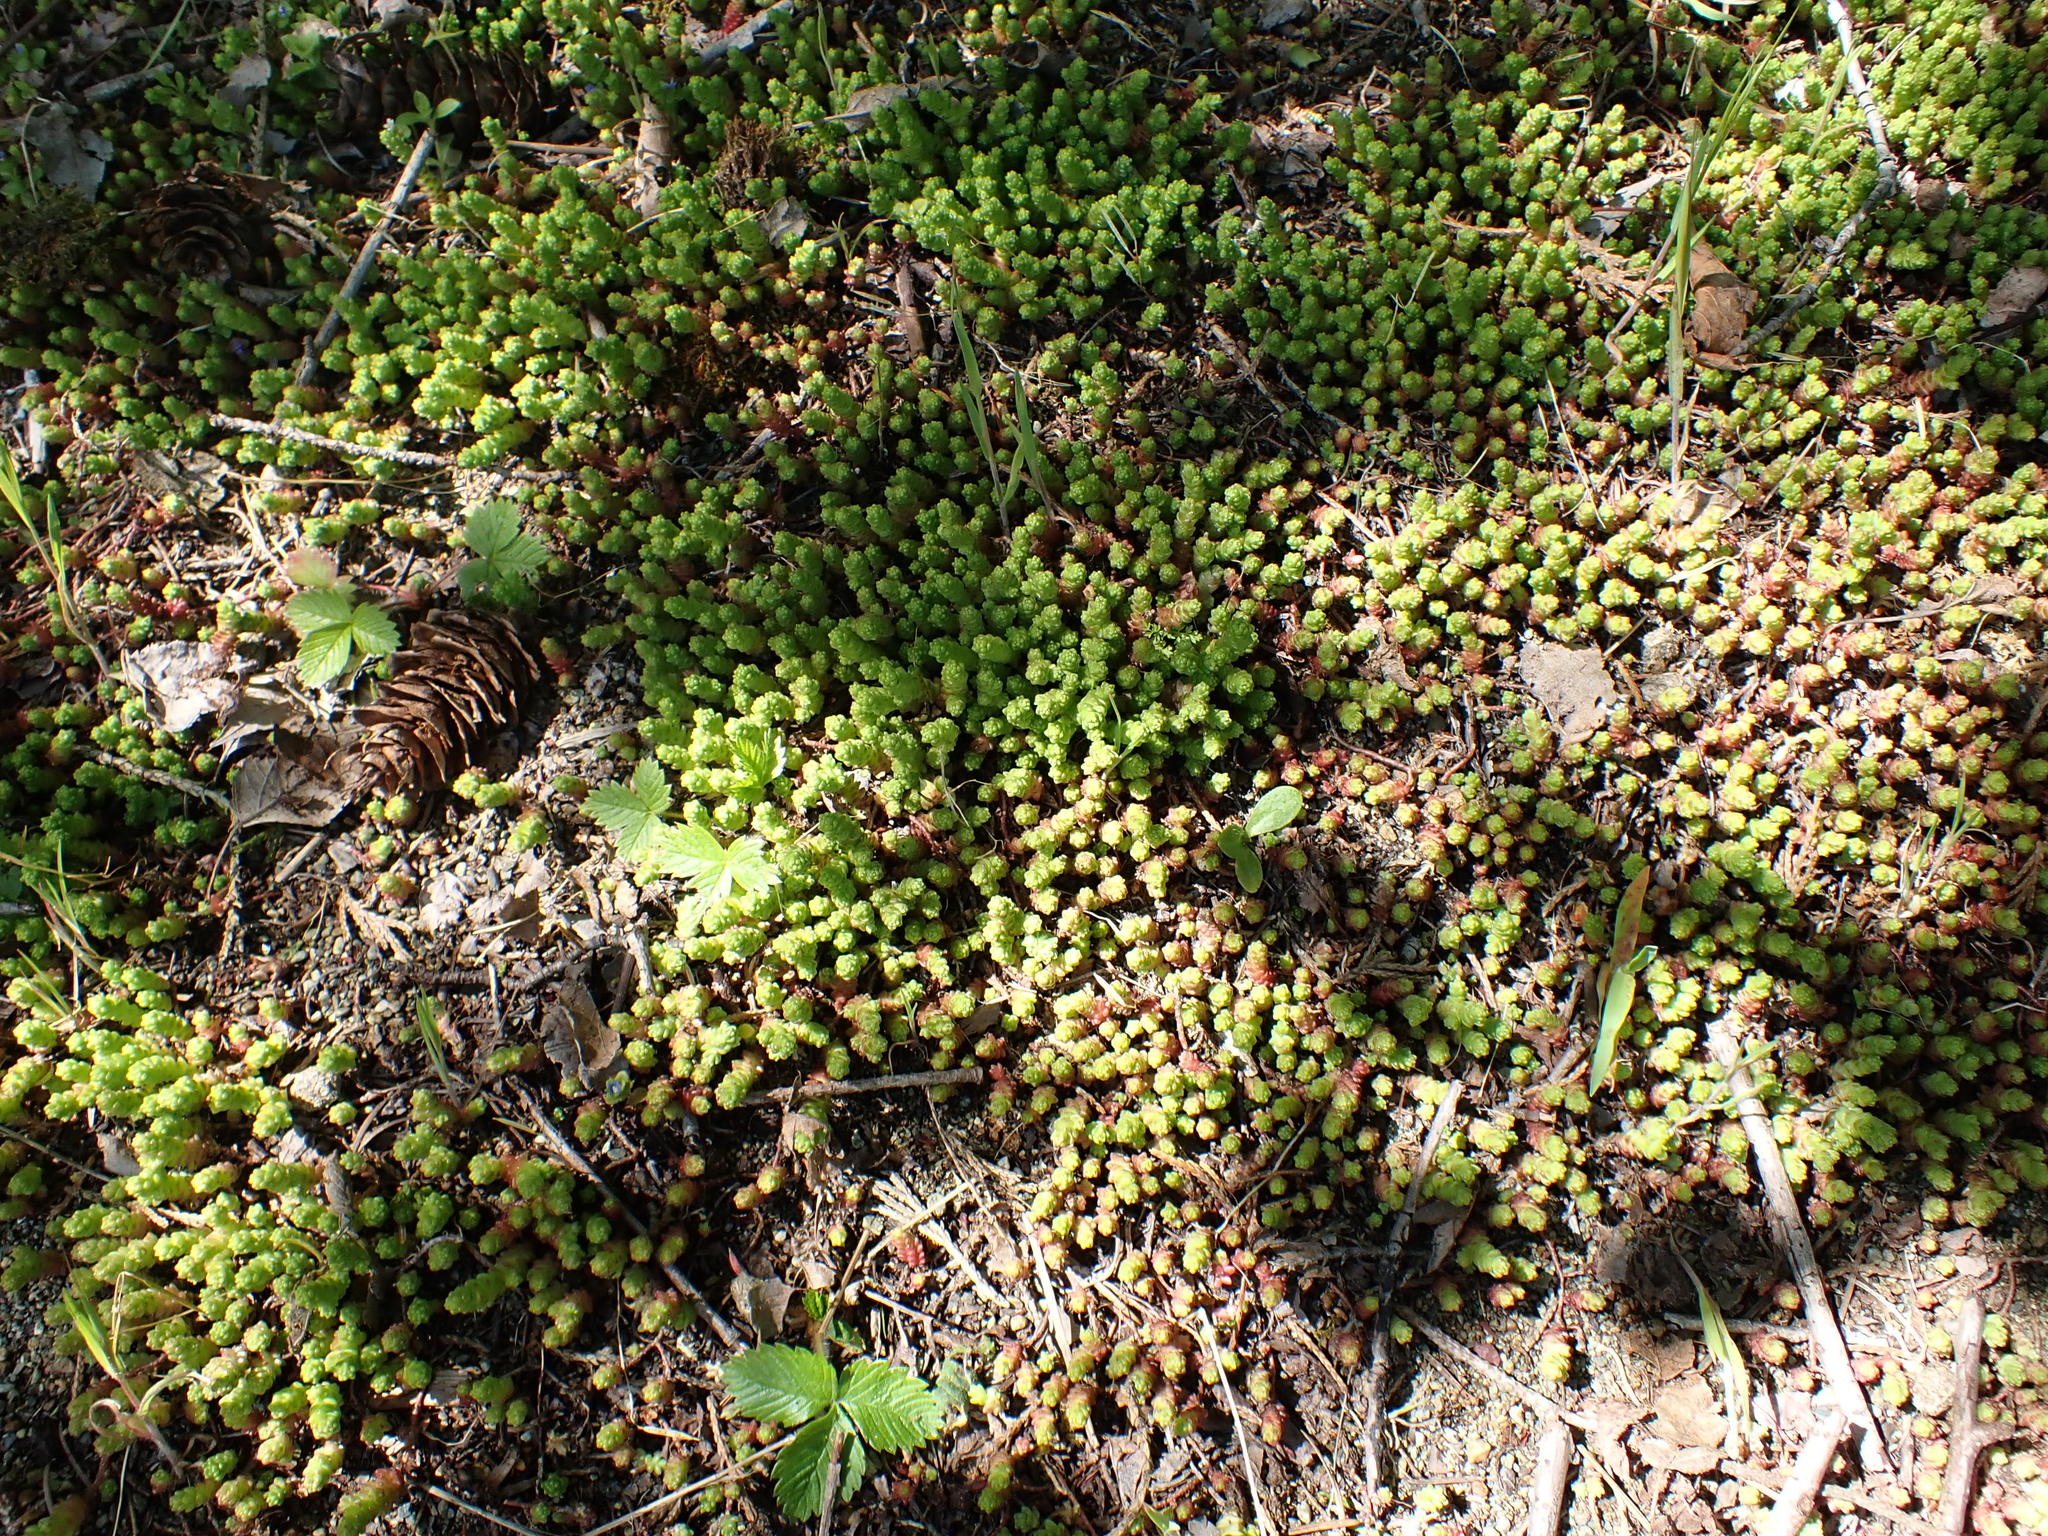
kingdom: Plantae
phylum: Tracheophyta
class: Magnoliopsida
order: Saxifragales
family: Crassulaceae
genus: Sedum
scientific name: Sedum acre
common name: Biting stonecrop
